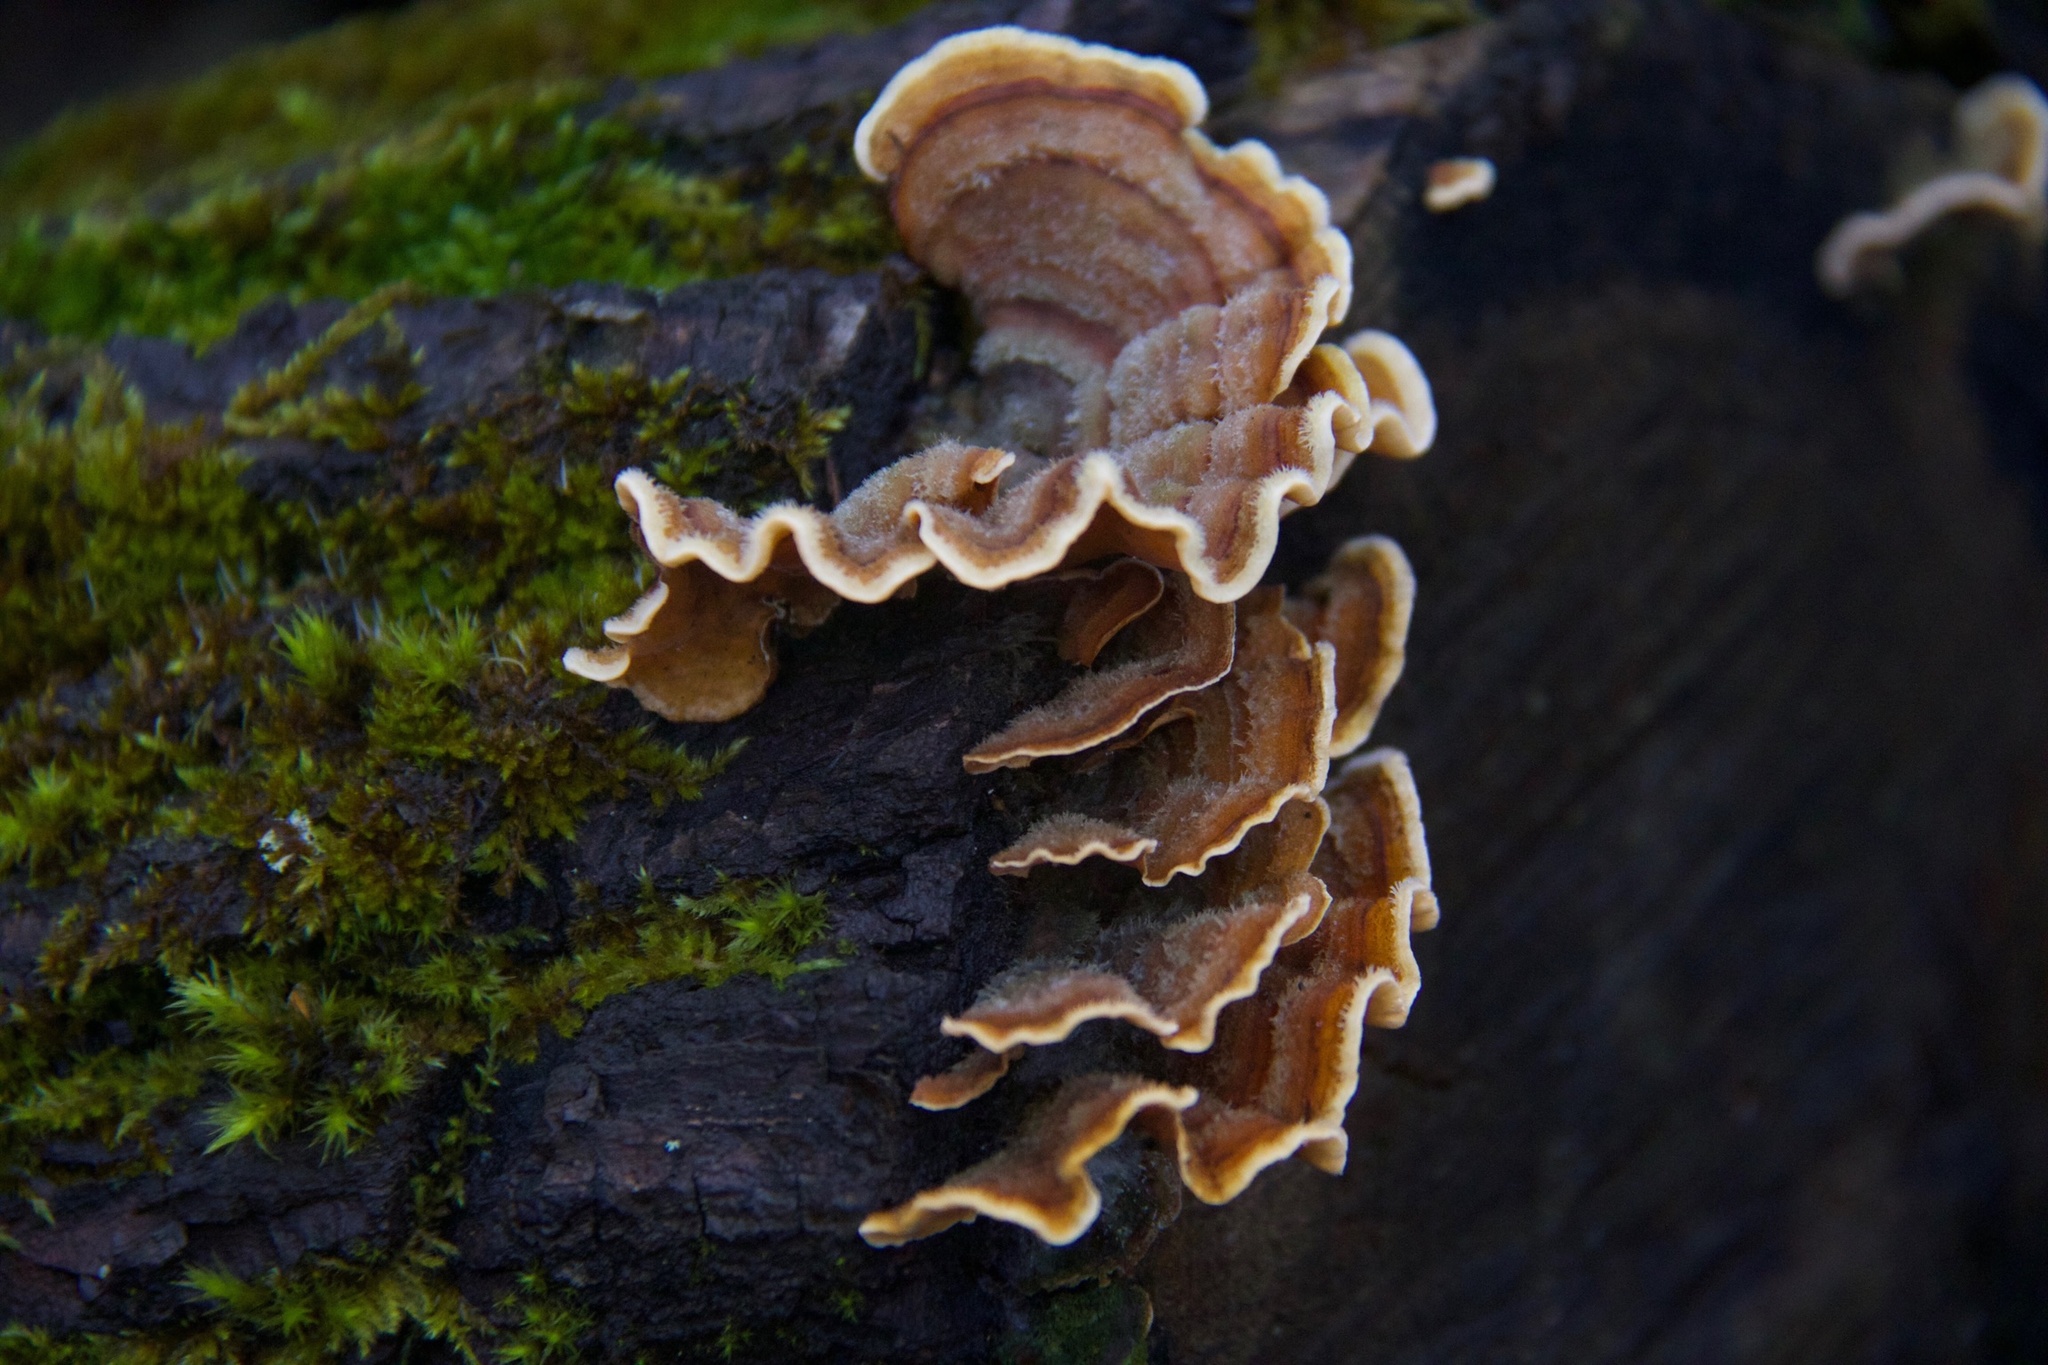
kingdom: Fungi
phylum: Basidiomycota
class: Agaricomycetes
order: Russulales
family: Stereaceae
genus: Stereum
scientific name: Stereum hirsutum
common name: Hairy curtain crust
